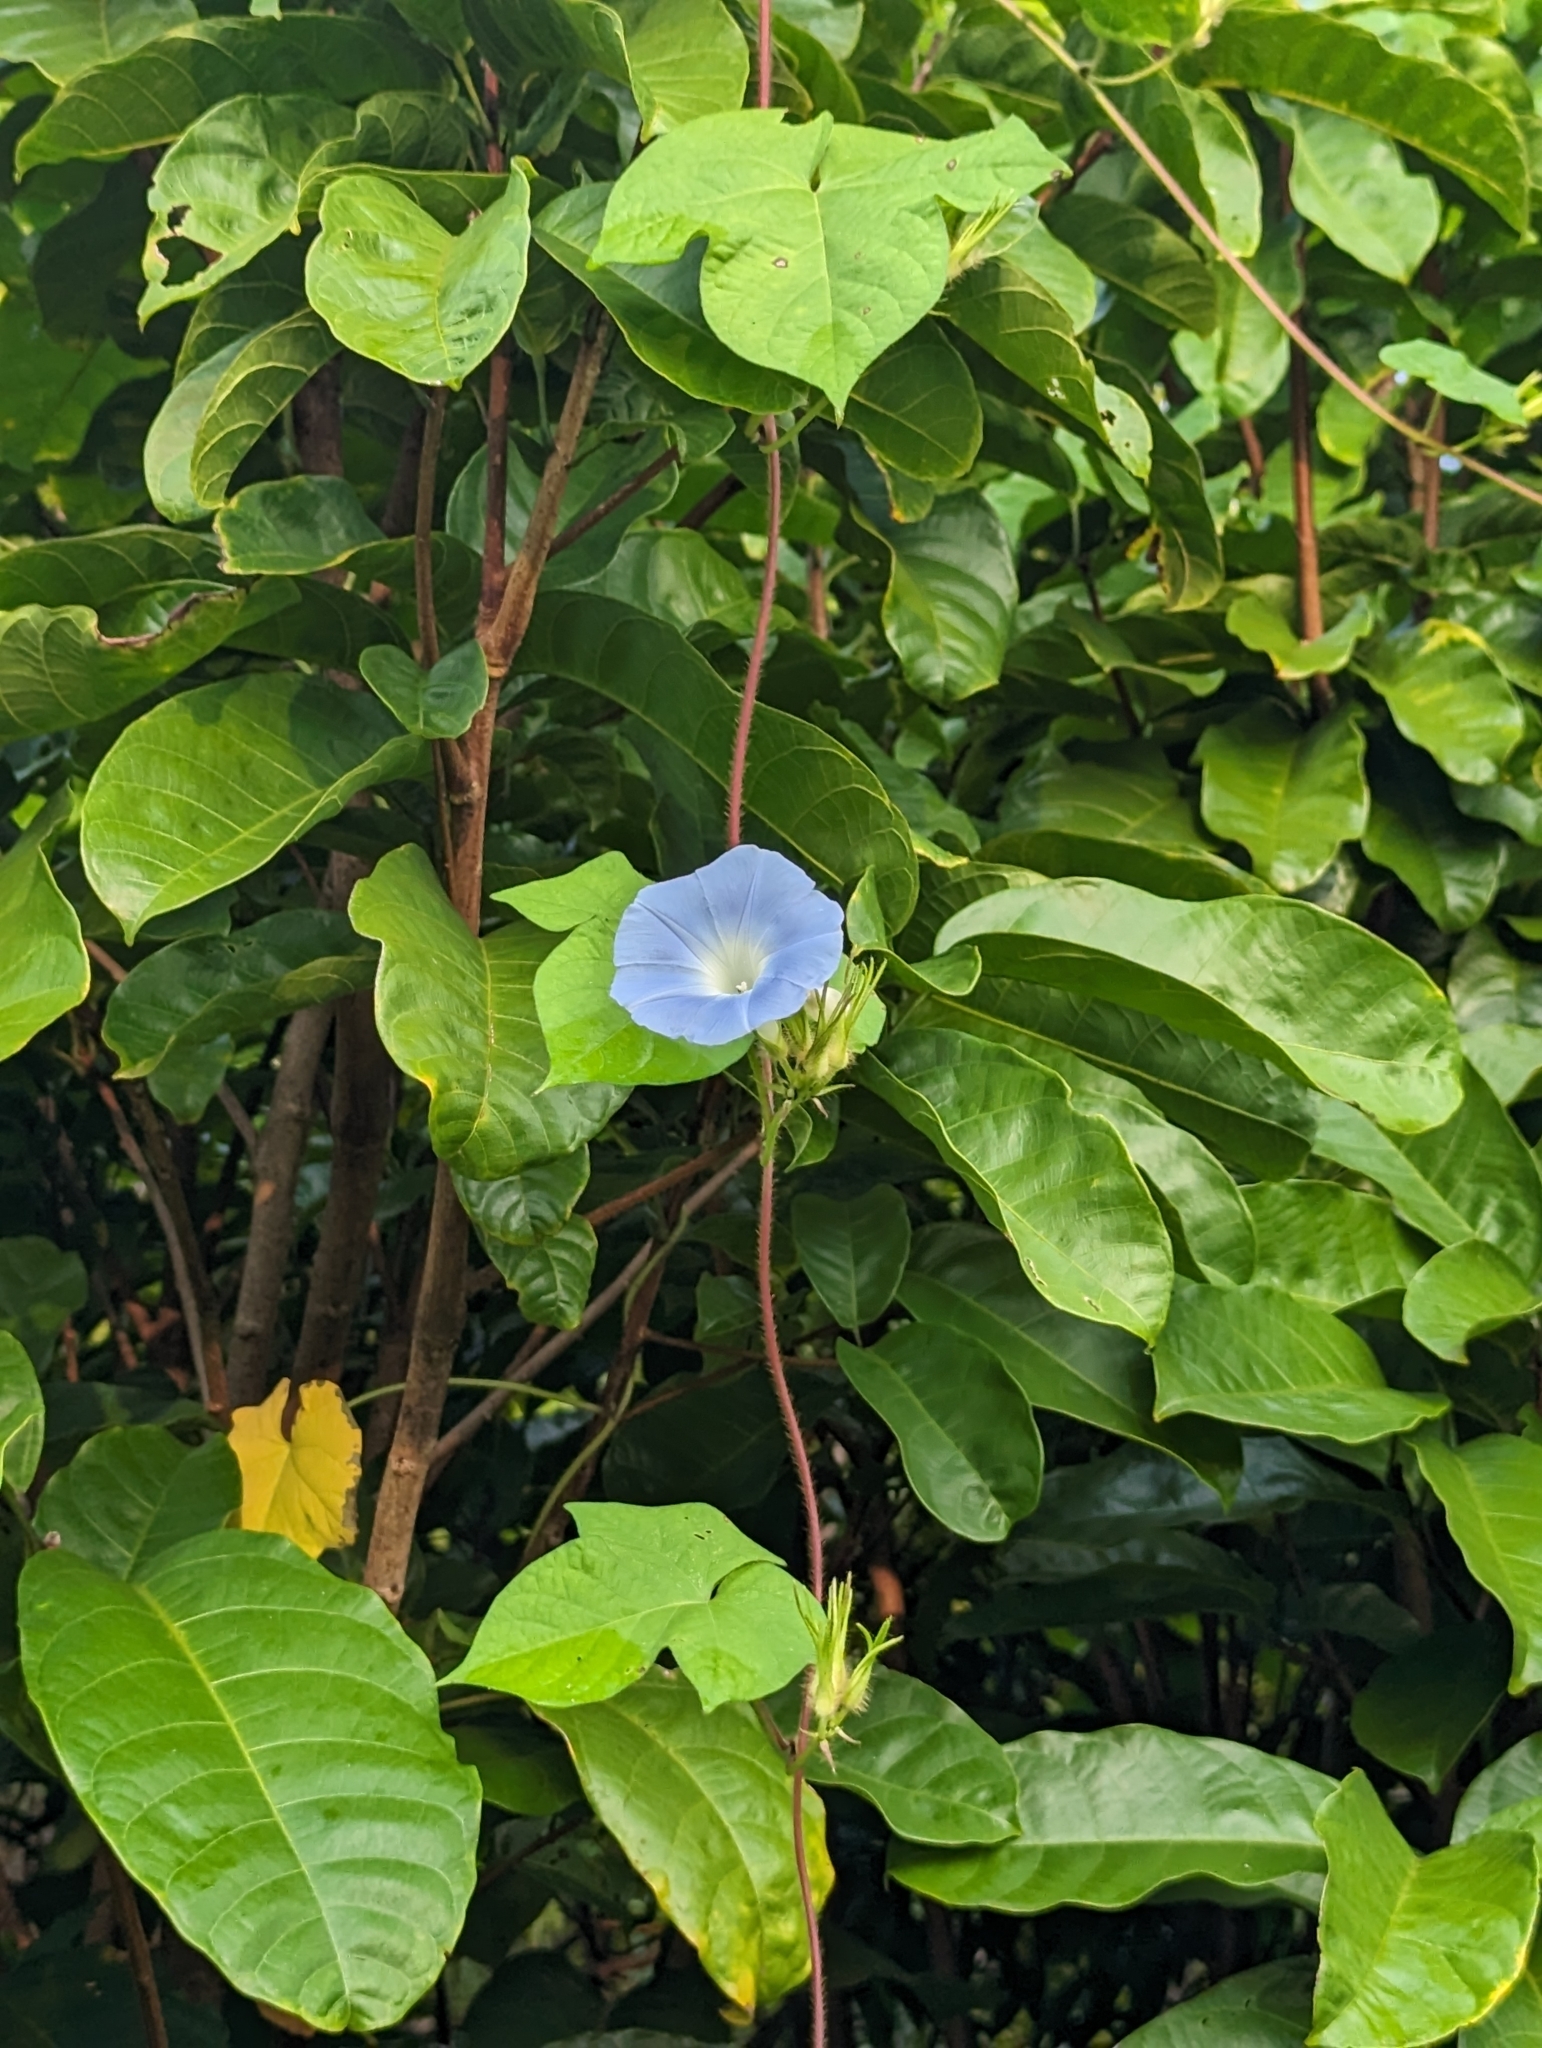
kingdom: Plantae
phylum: Tracheophyta
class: Magnoliopsida
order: Solanales
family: Convolvulaceae
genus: Ipomoea
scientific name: Ipomoea nil
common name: Japanese morning-glory
